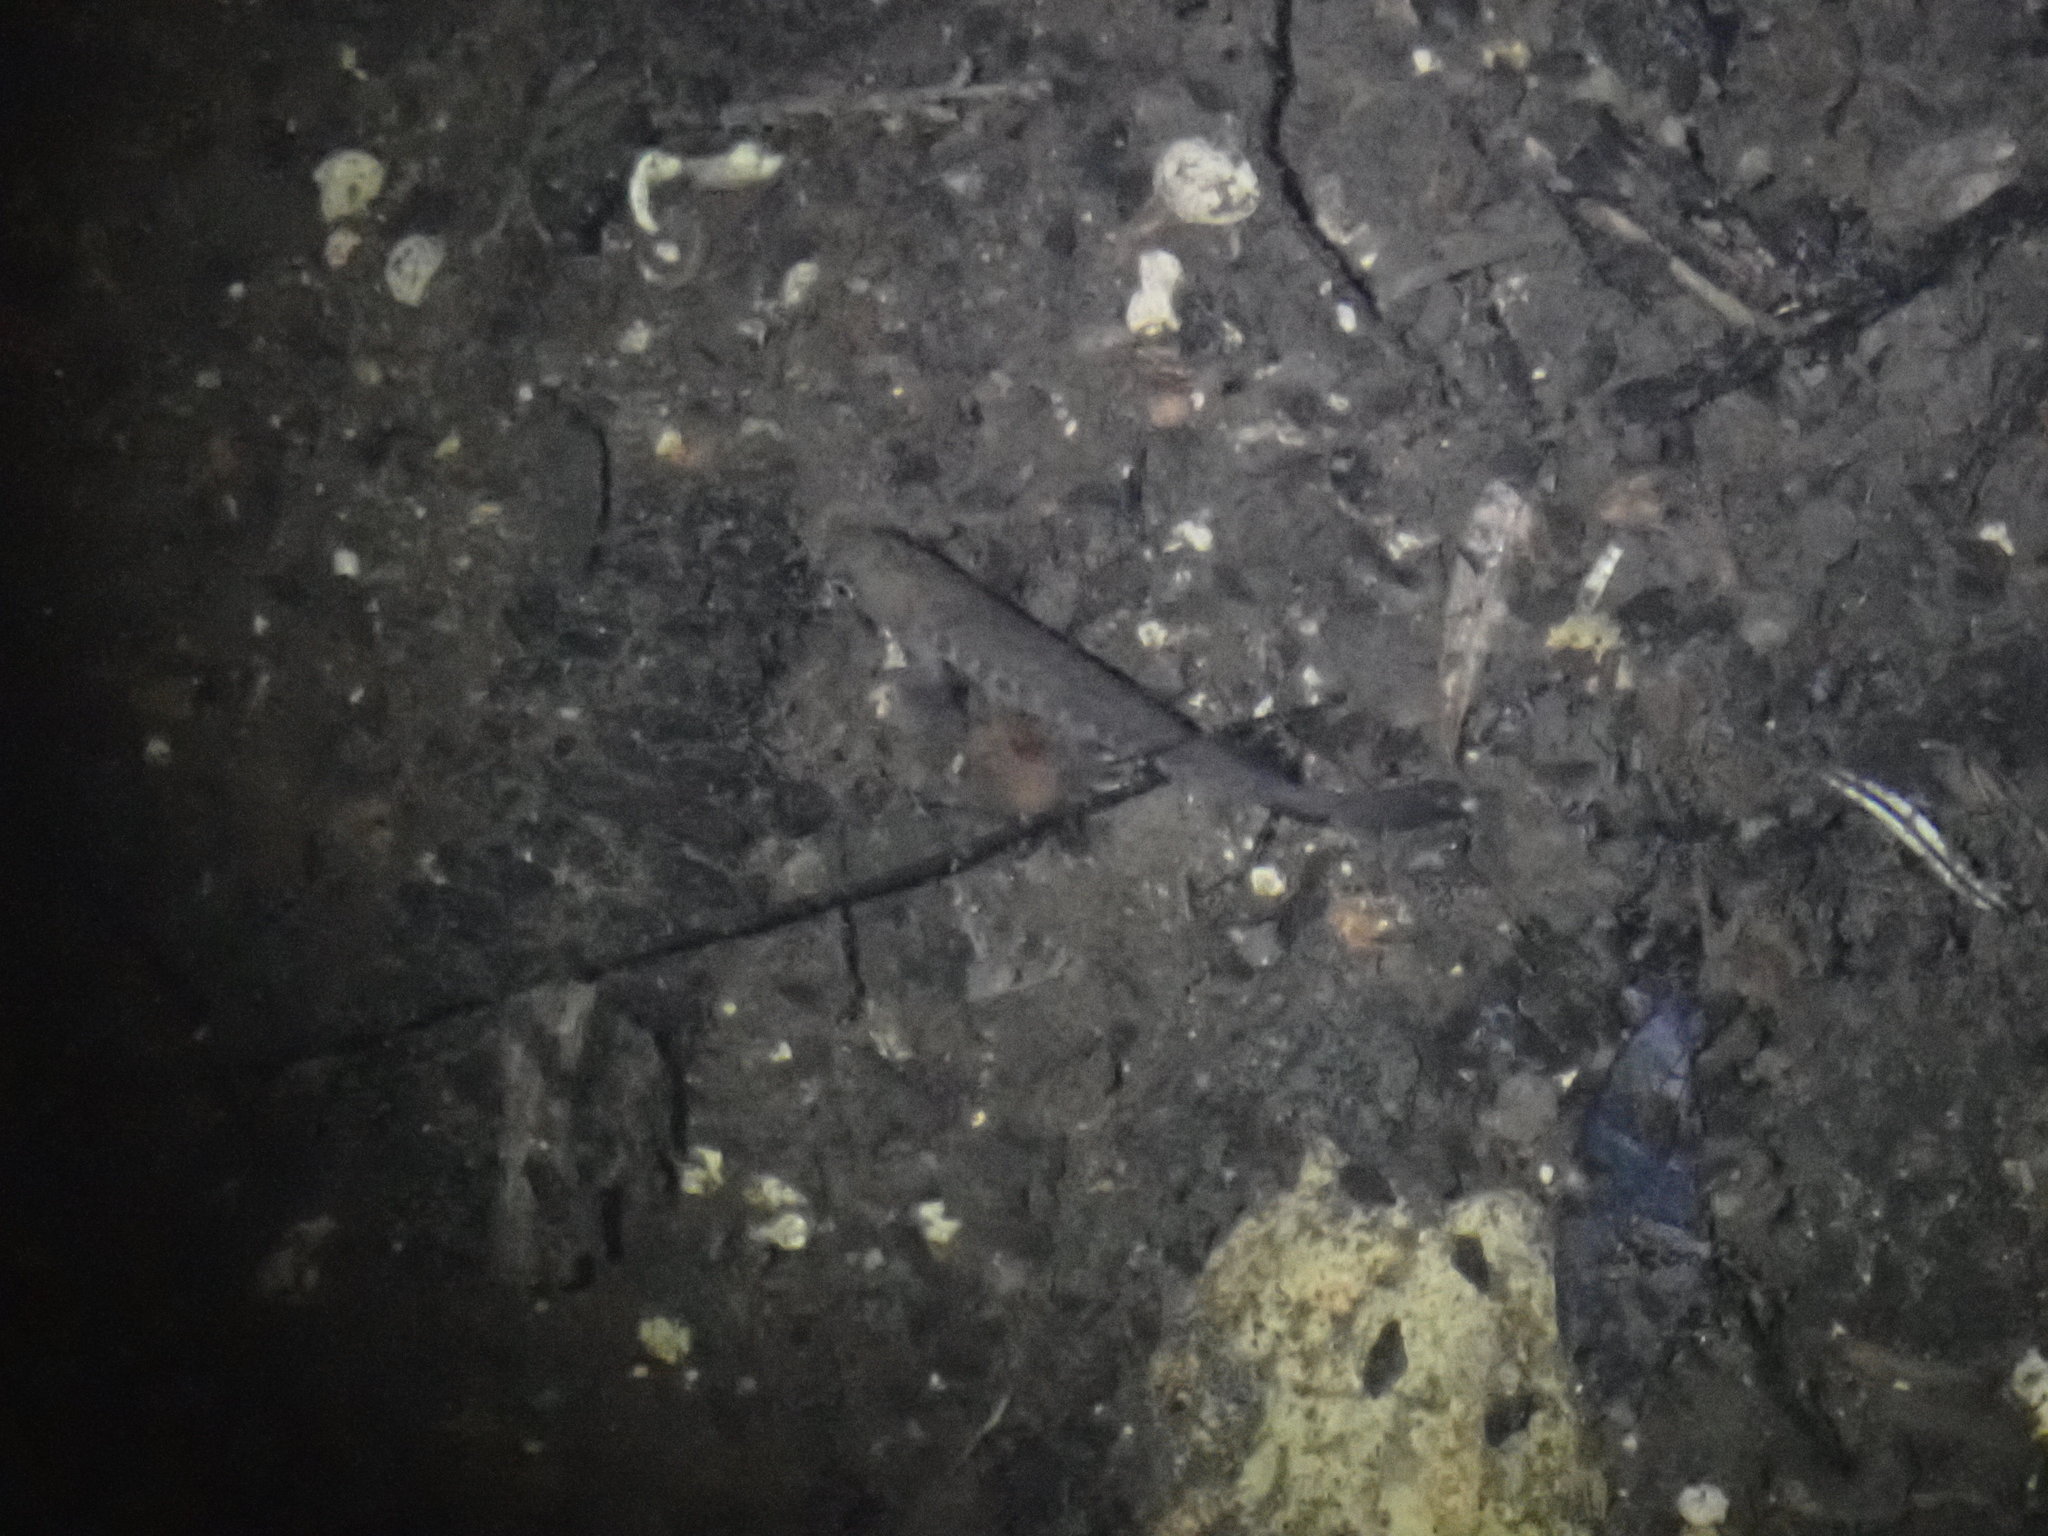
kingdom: Animalia
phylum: Chordata
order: Osmeriformes
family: Galaxiidae
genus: Galaxias
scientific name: Galaxias fasciatus
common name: Banded kokopu
